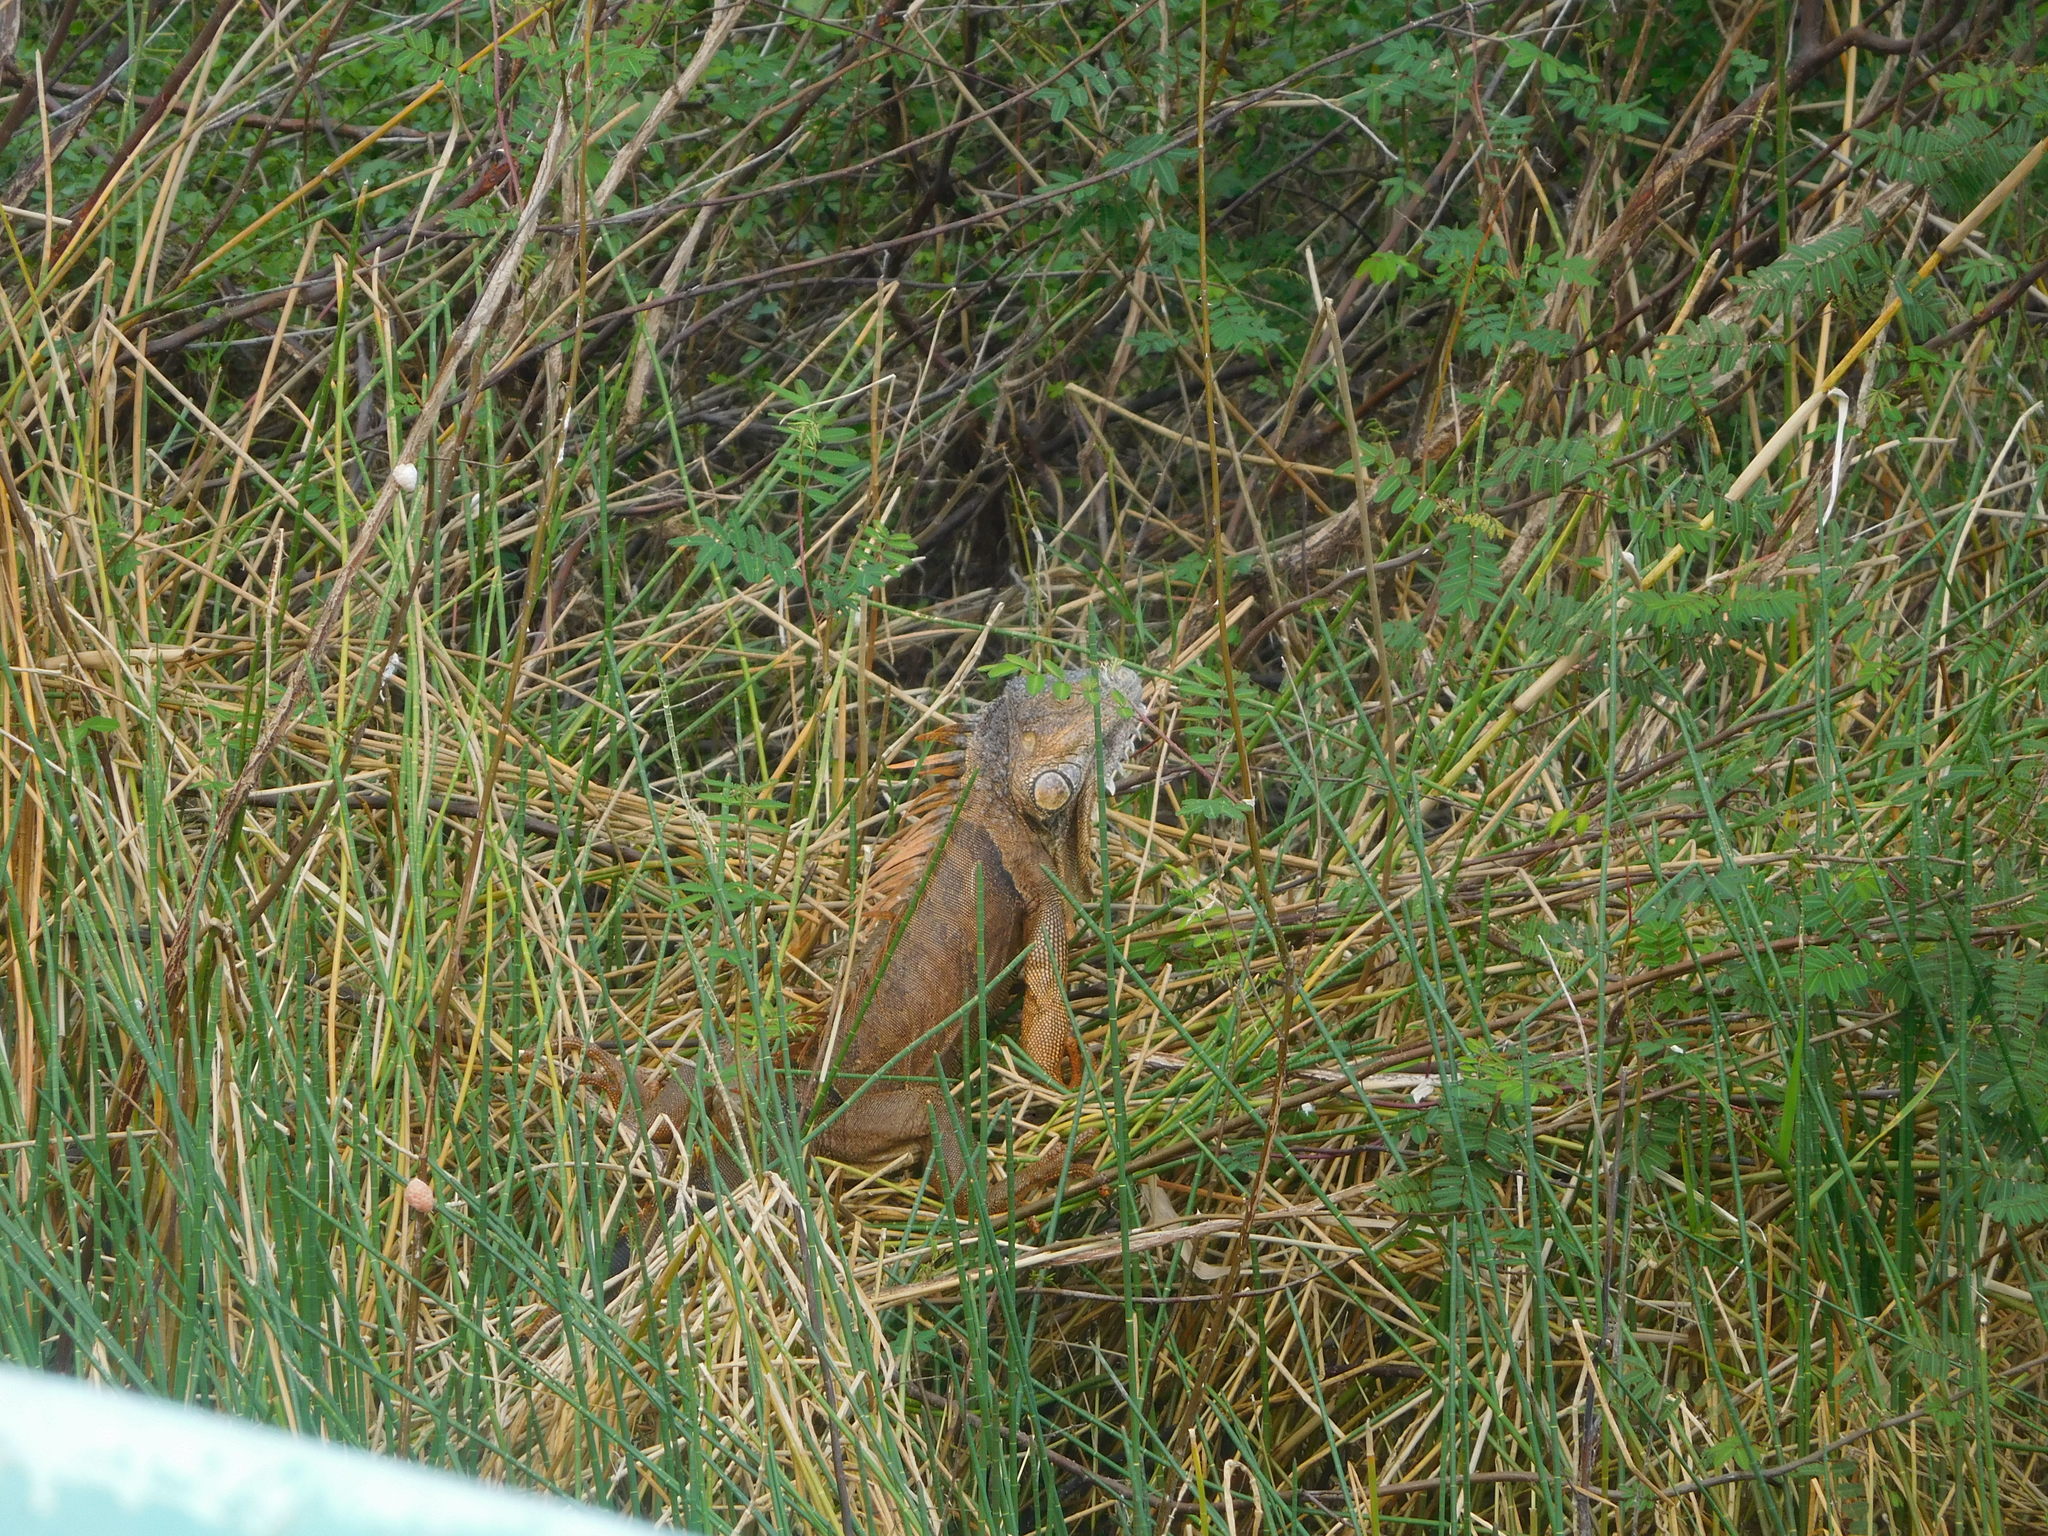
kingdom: Animalia
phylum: Chordata
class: Squamata
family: Iguanidae
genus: Iguana
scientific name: Iguana iguana
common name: Green iguana
